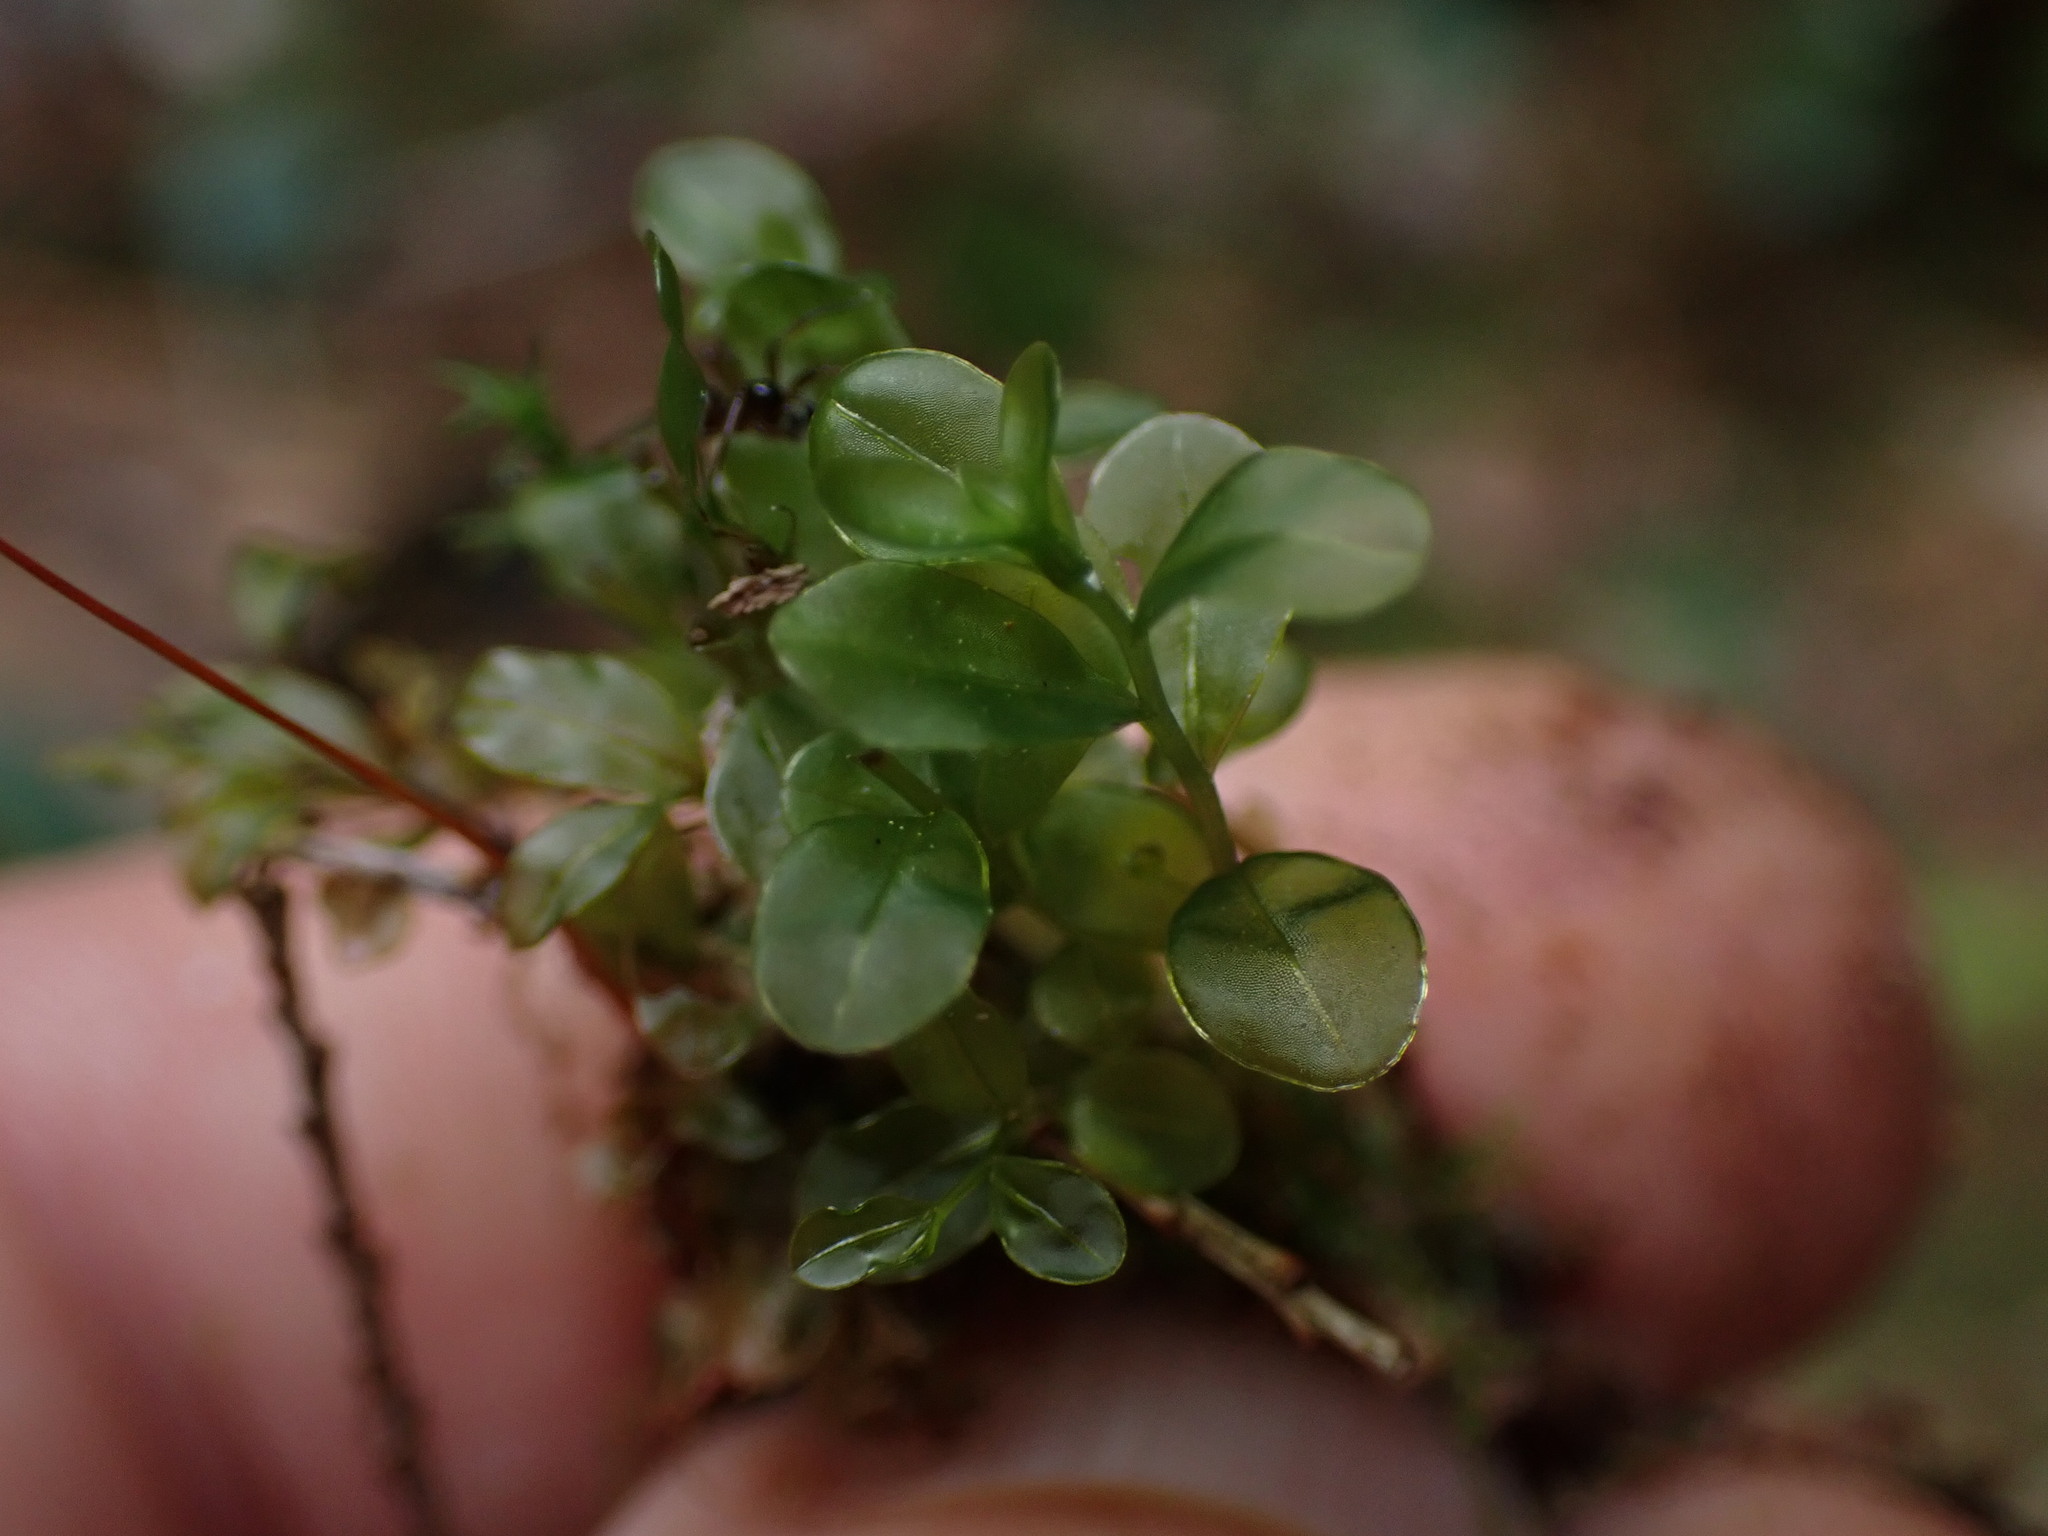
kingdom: Plantae
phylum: Bryophyta
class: Bryopsida
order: Bryales
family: Mniaceae
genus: Rhizomnium
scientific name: Rhizomnium glabrescens
